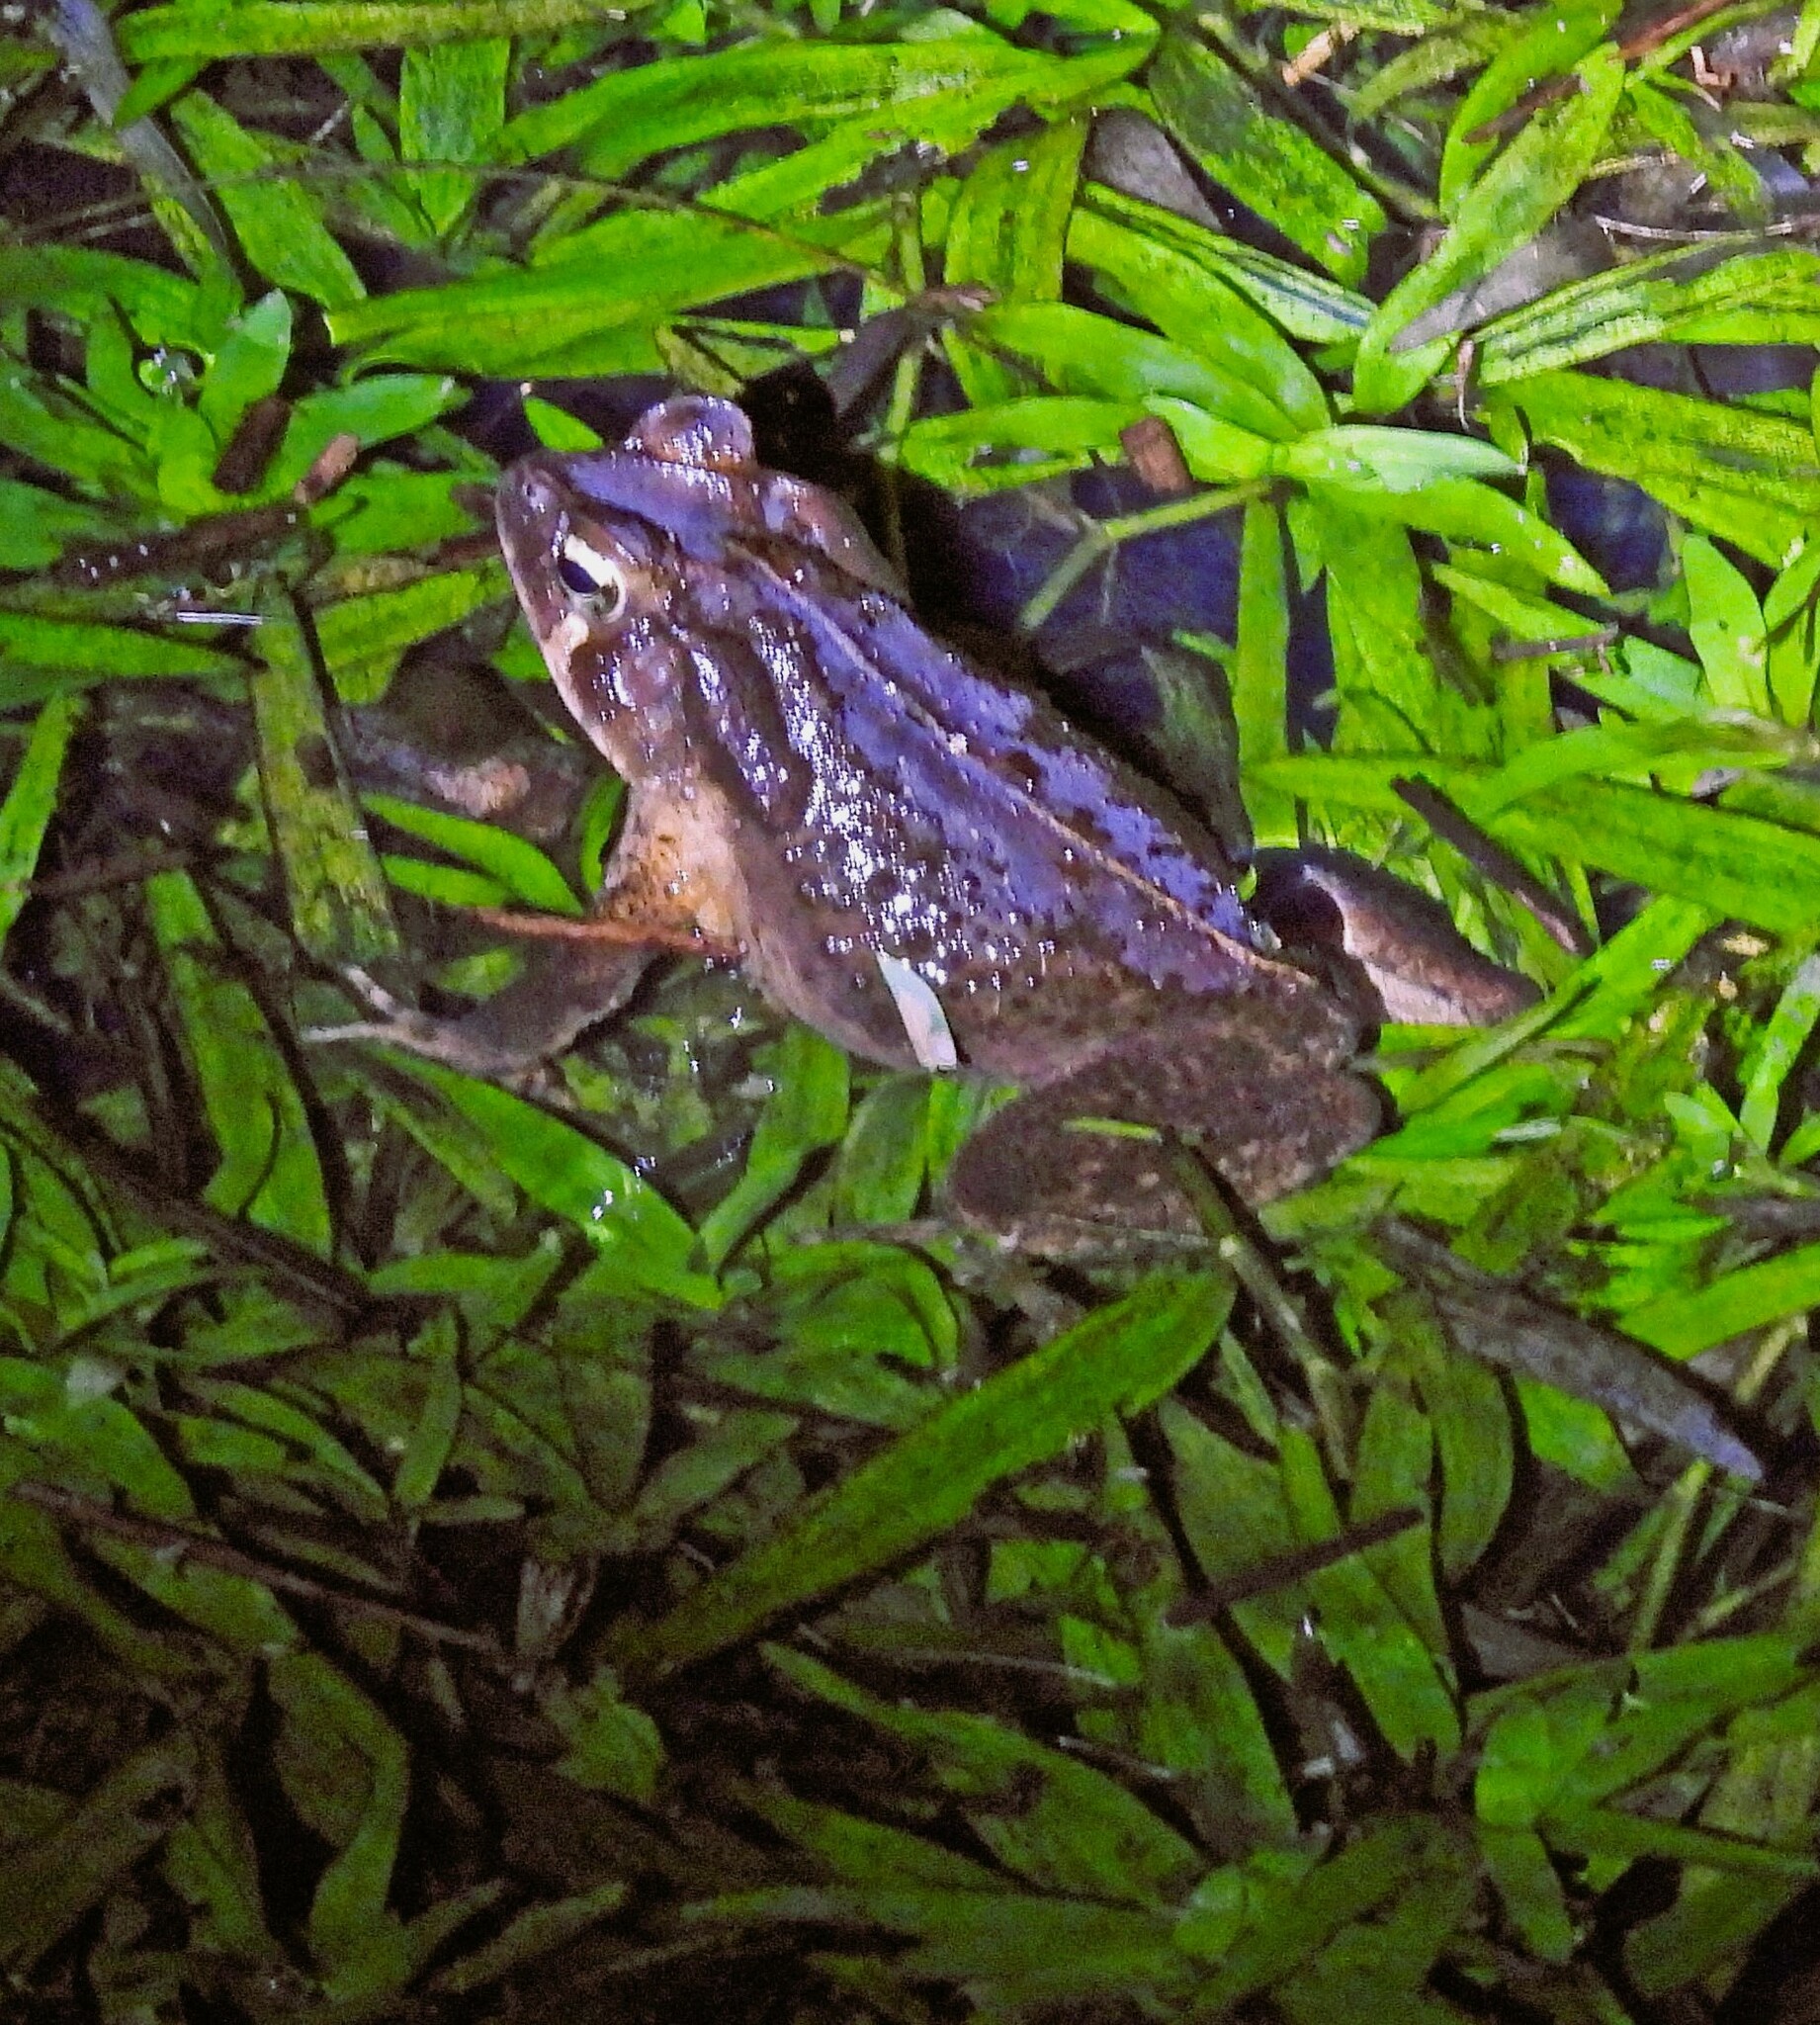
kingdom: Animalia
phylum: Chordata
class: Amphibia
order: Anura
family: Bufonidae
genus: Rhinella
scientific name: Rhinella ornata
